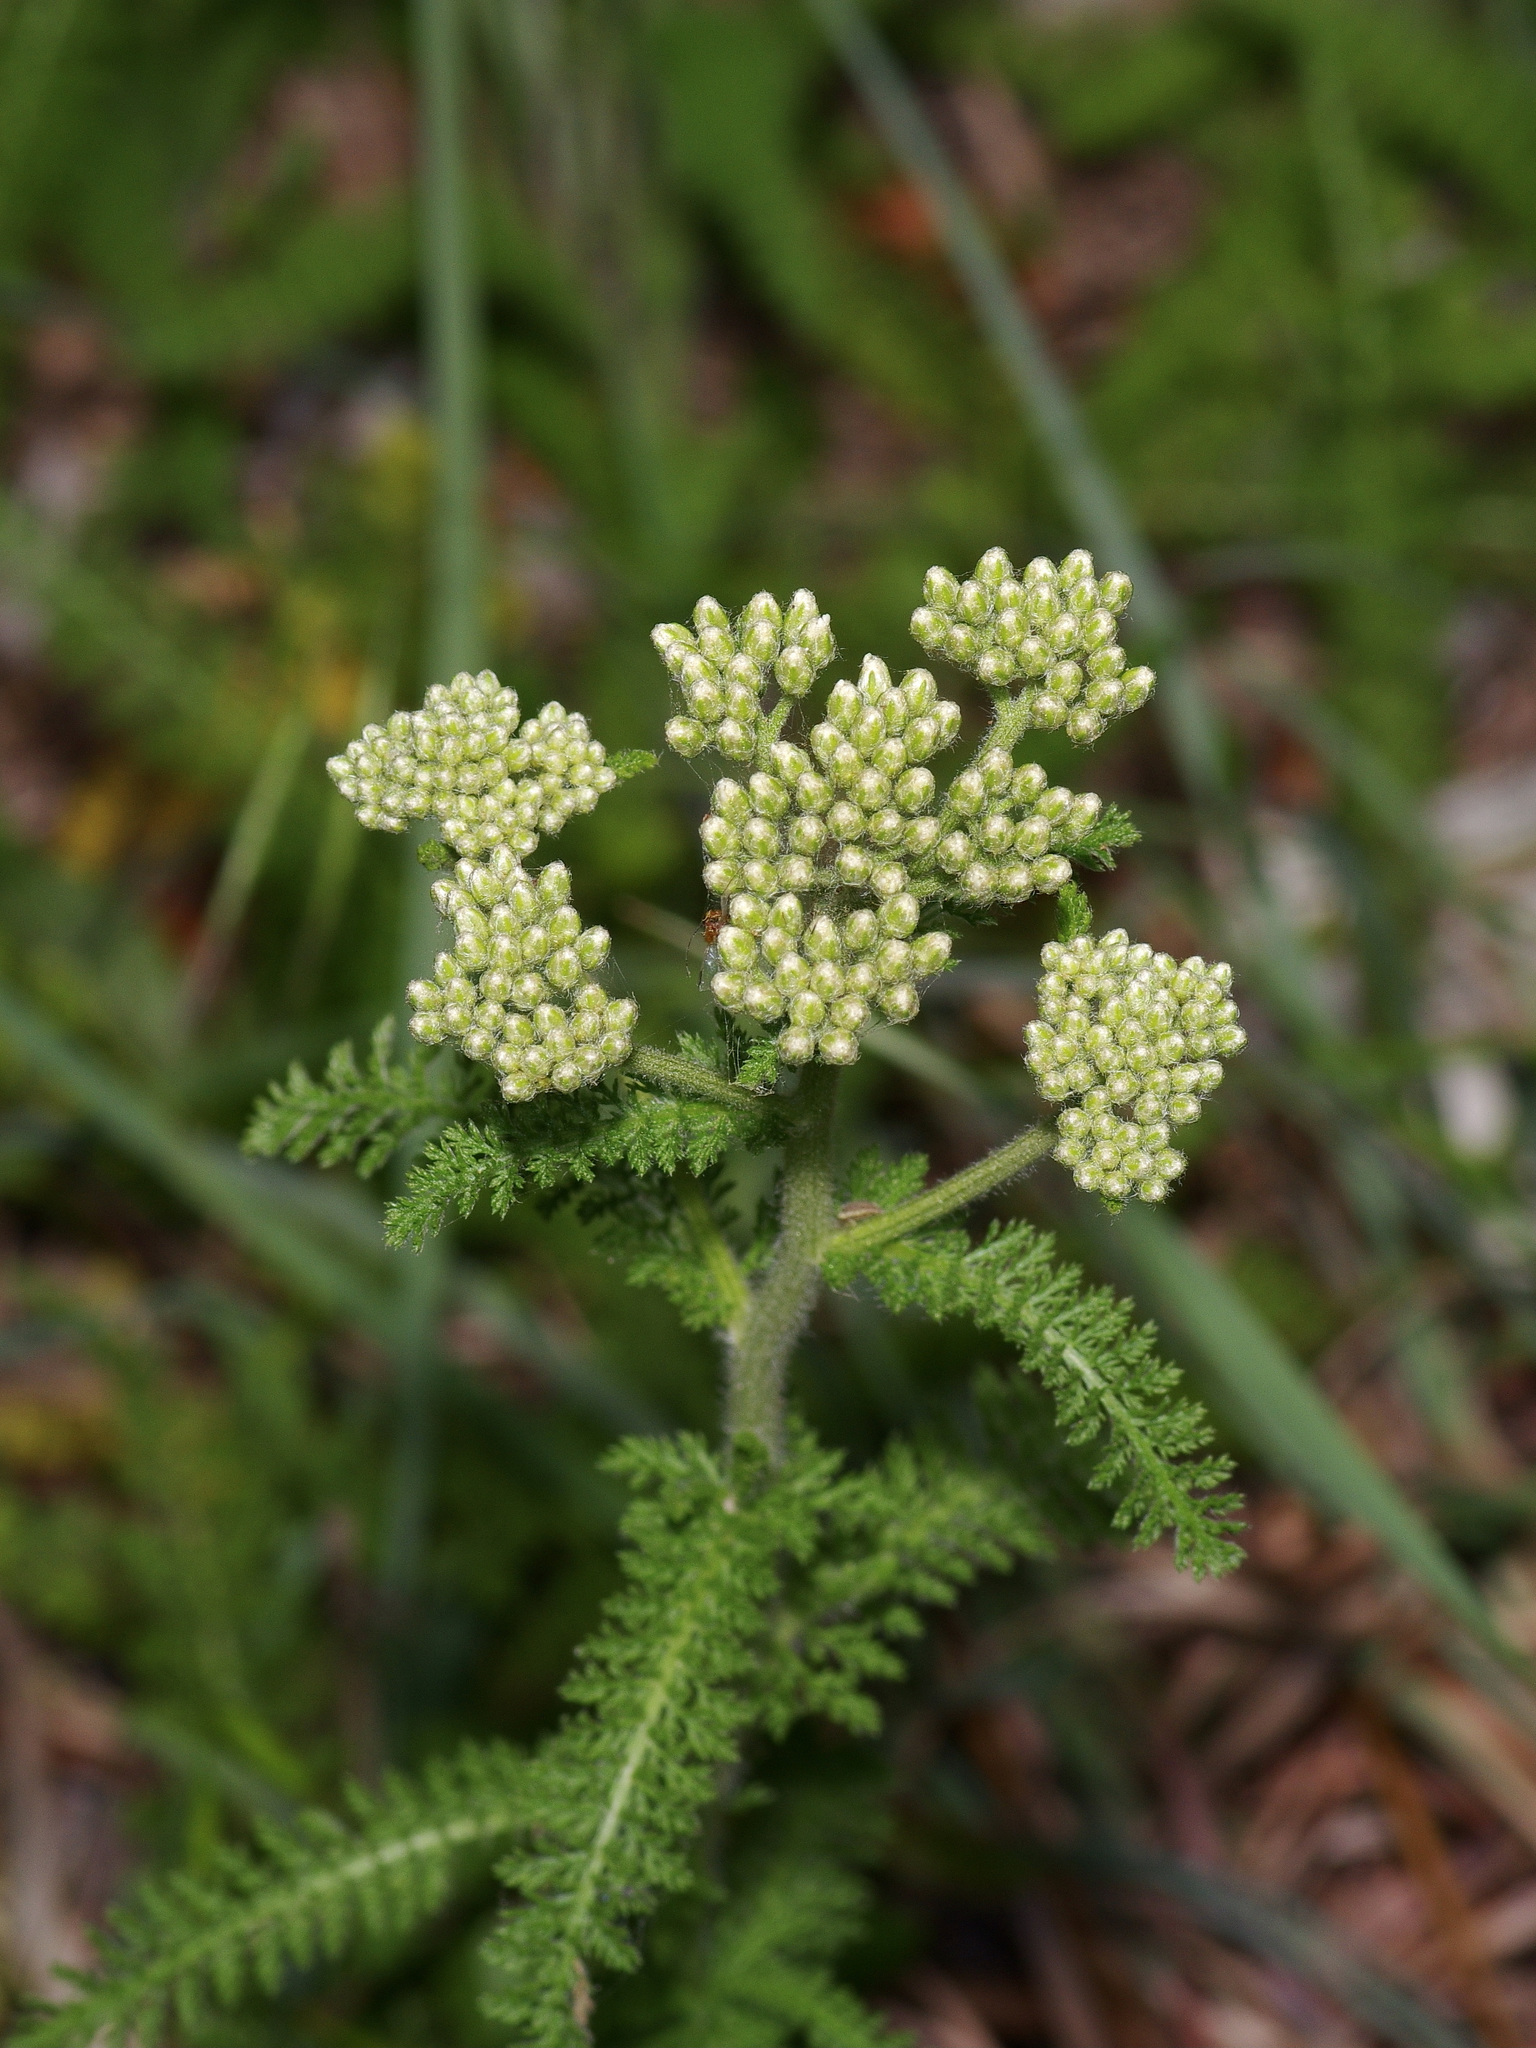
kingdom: Plantae
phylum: Tracheophyta
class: Magnoliopsida
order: Asterales
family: Asteraceae
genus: Achillea
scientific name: Achillea millefolium
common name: Yarrow
